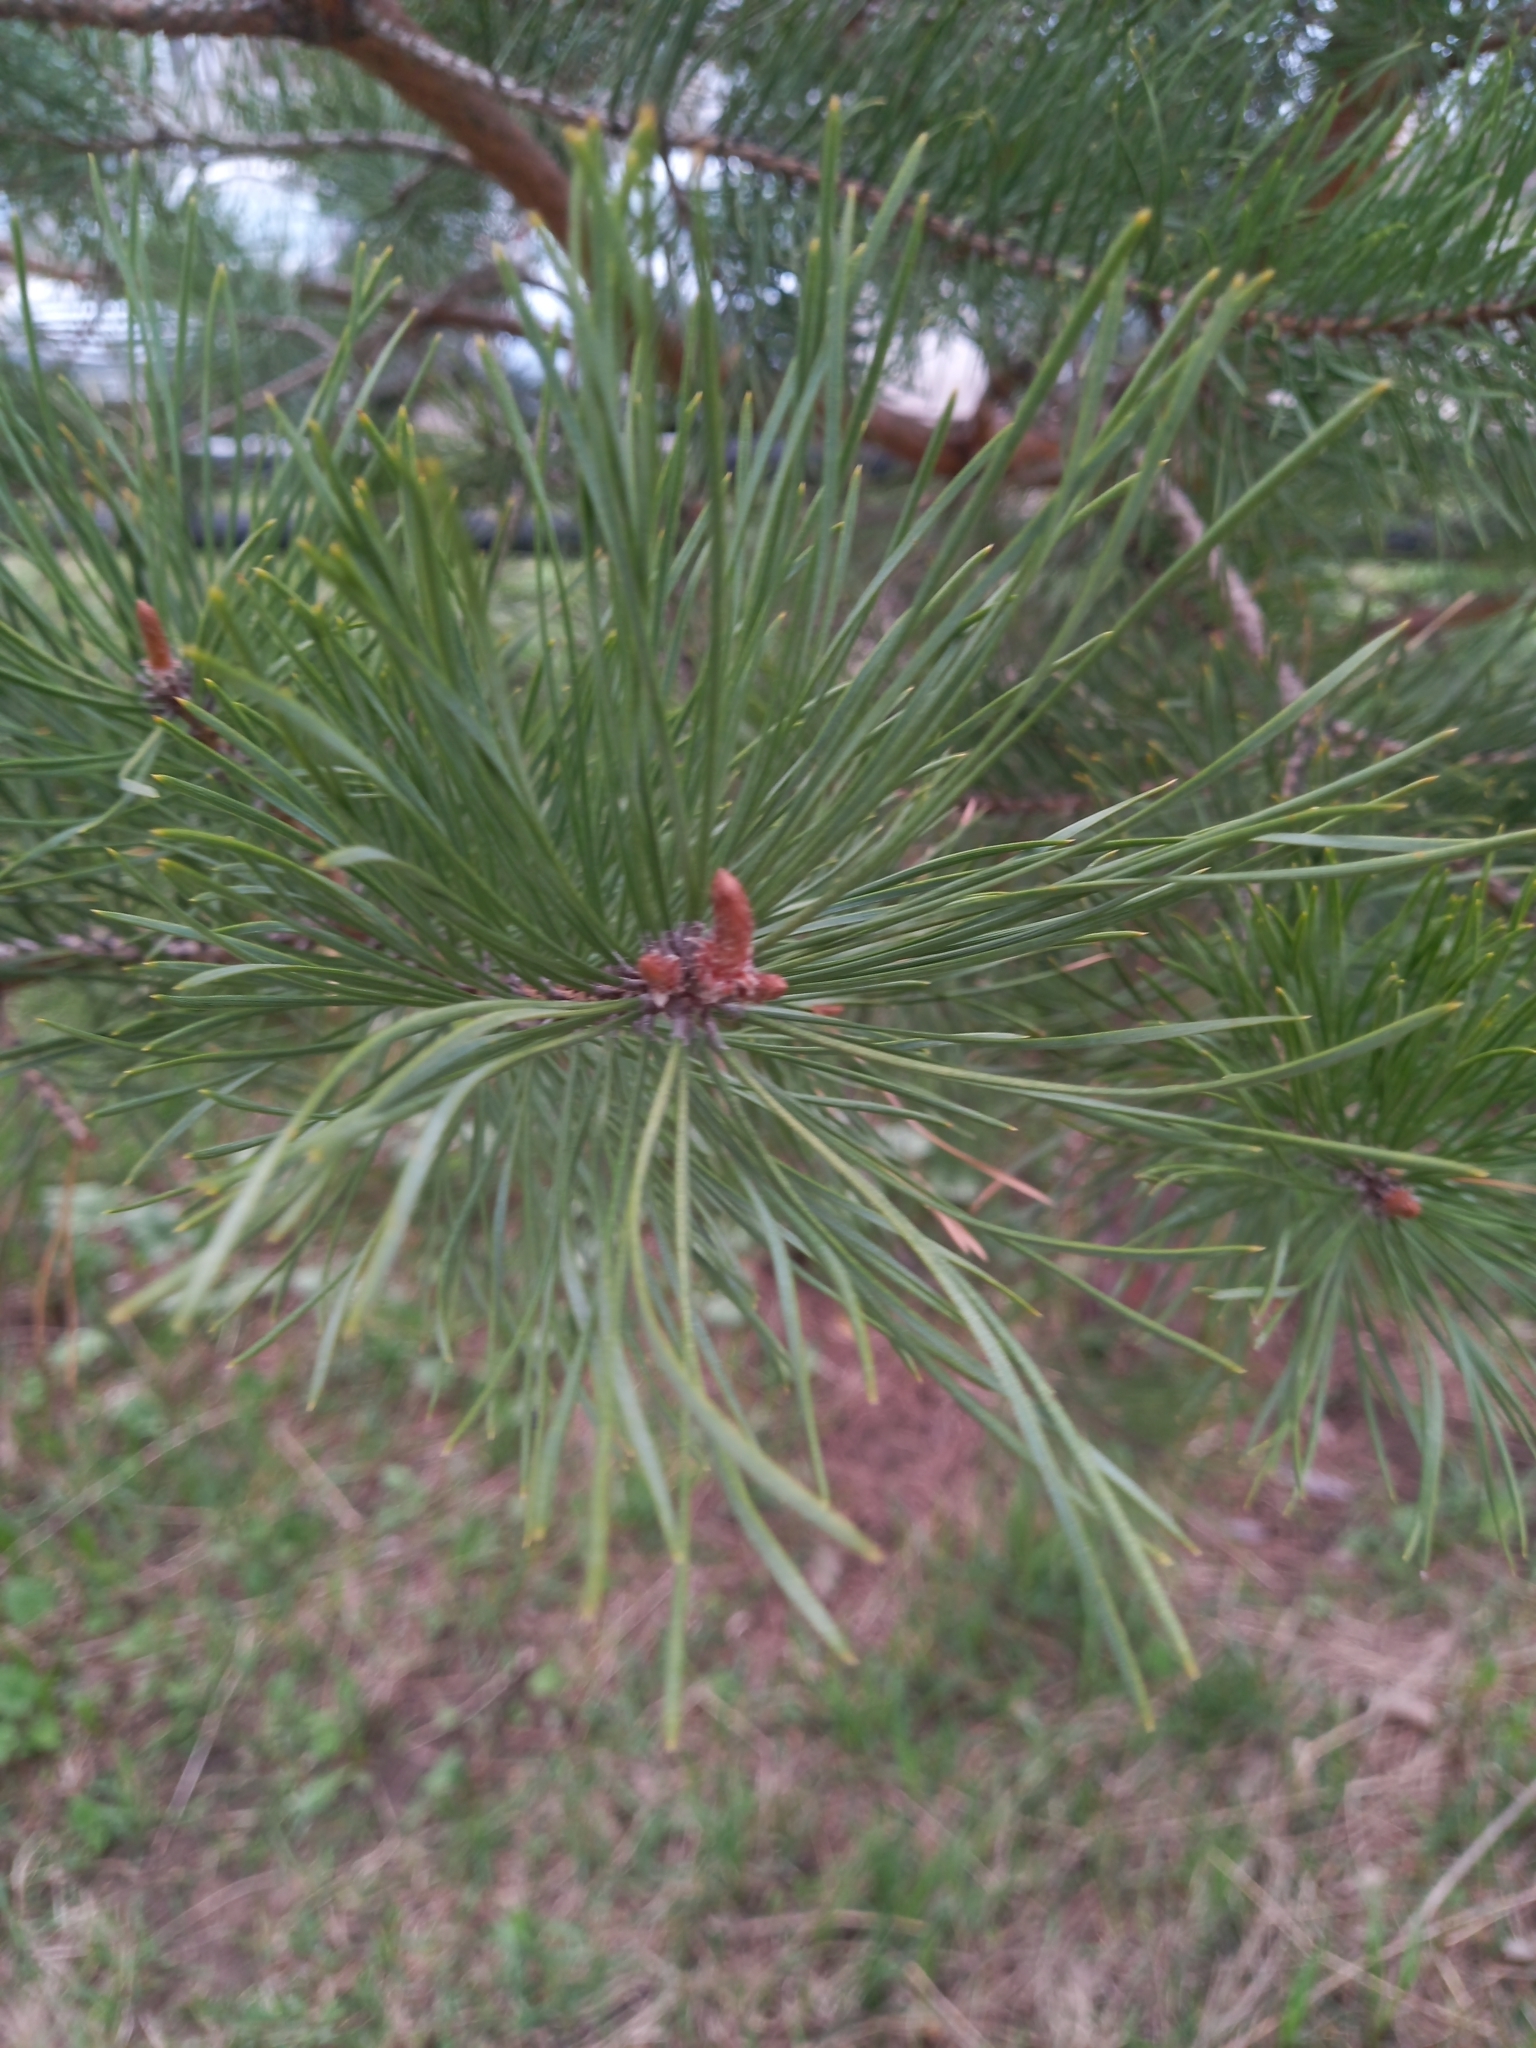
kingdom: Plantae
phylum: Tracheophyta
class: Pinopsida
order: Pinales
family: Pinaceae
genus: Pinus
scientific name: Pinus sylvestris
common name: Scots pine
